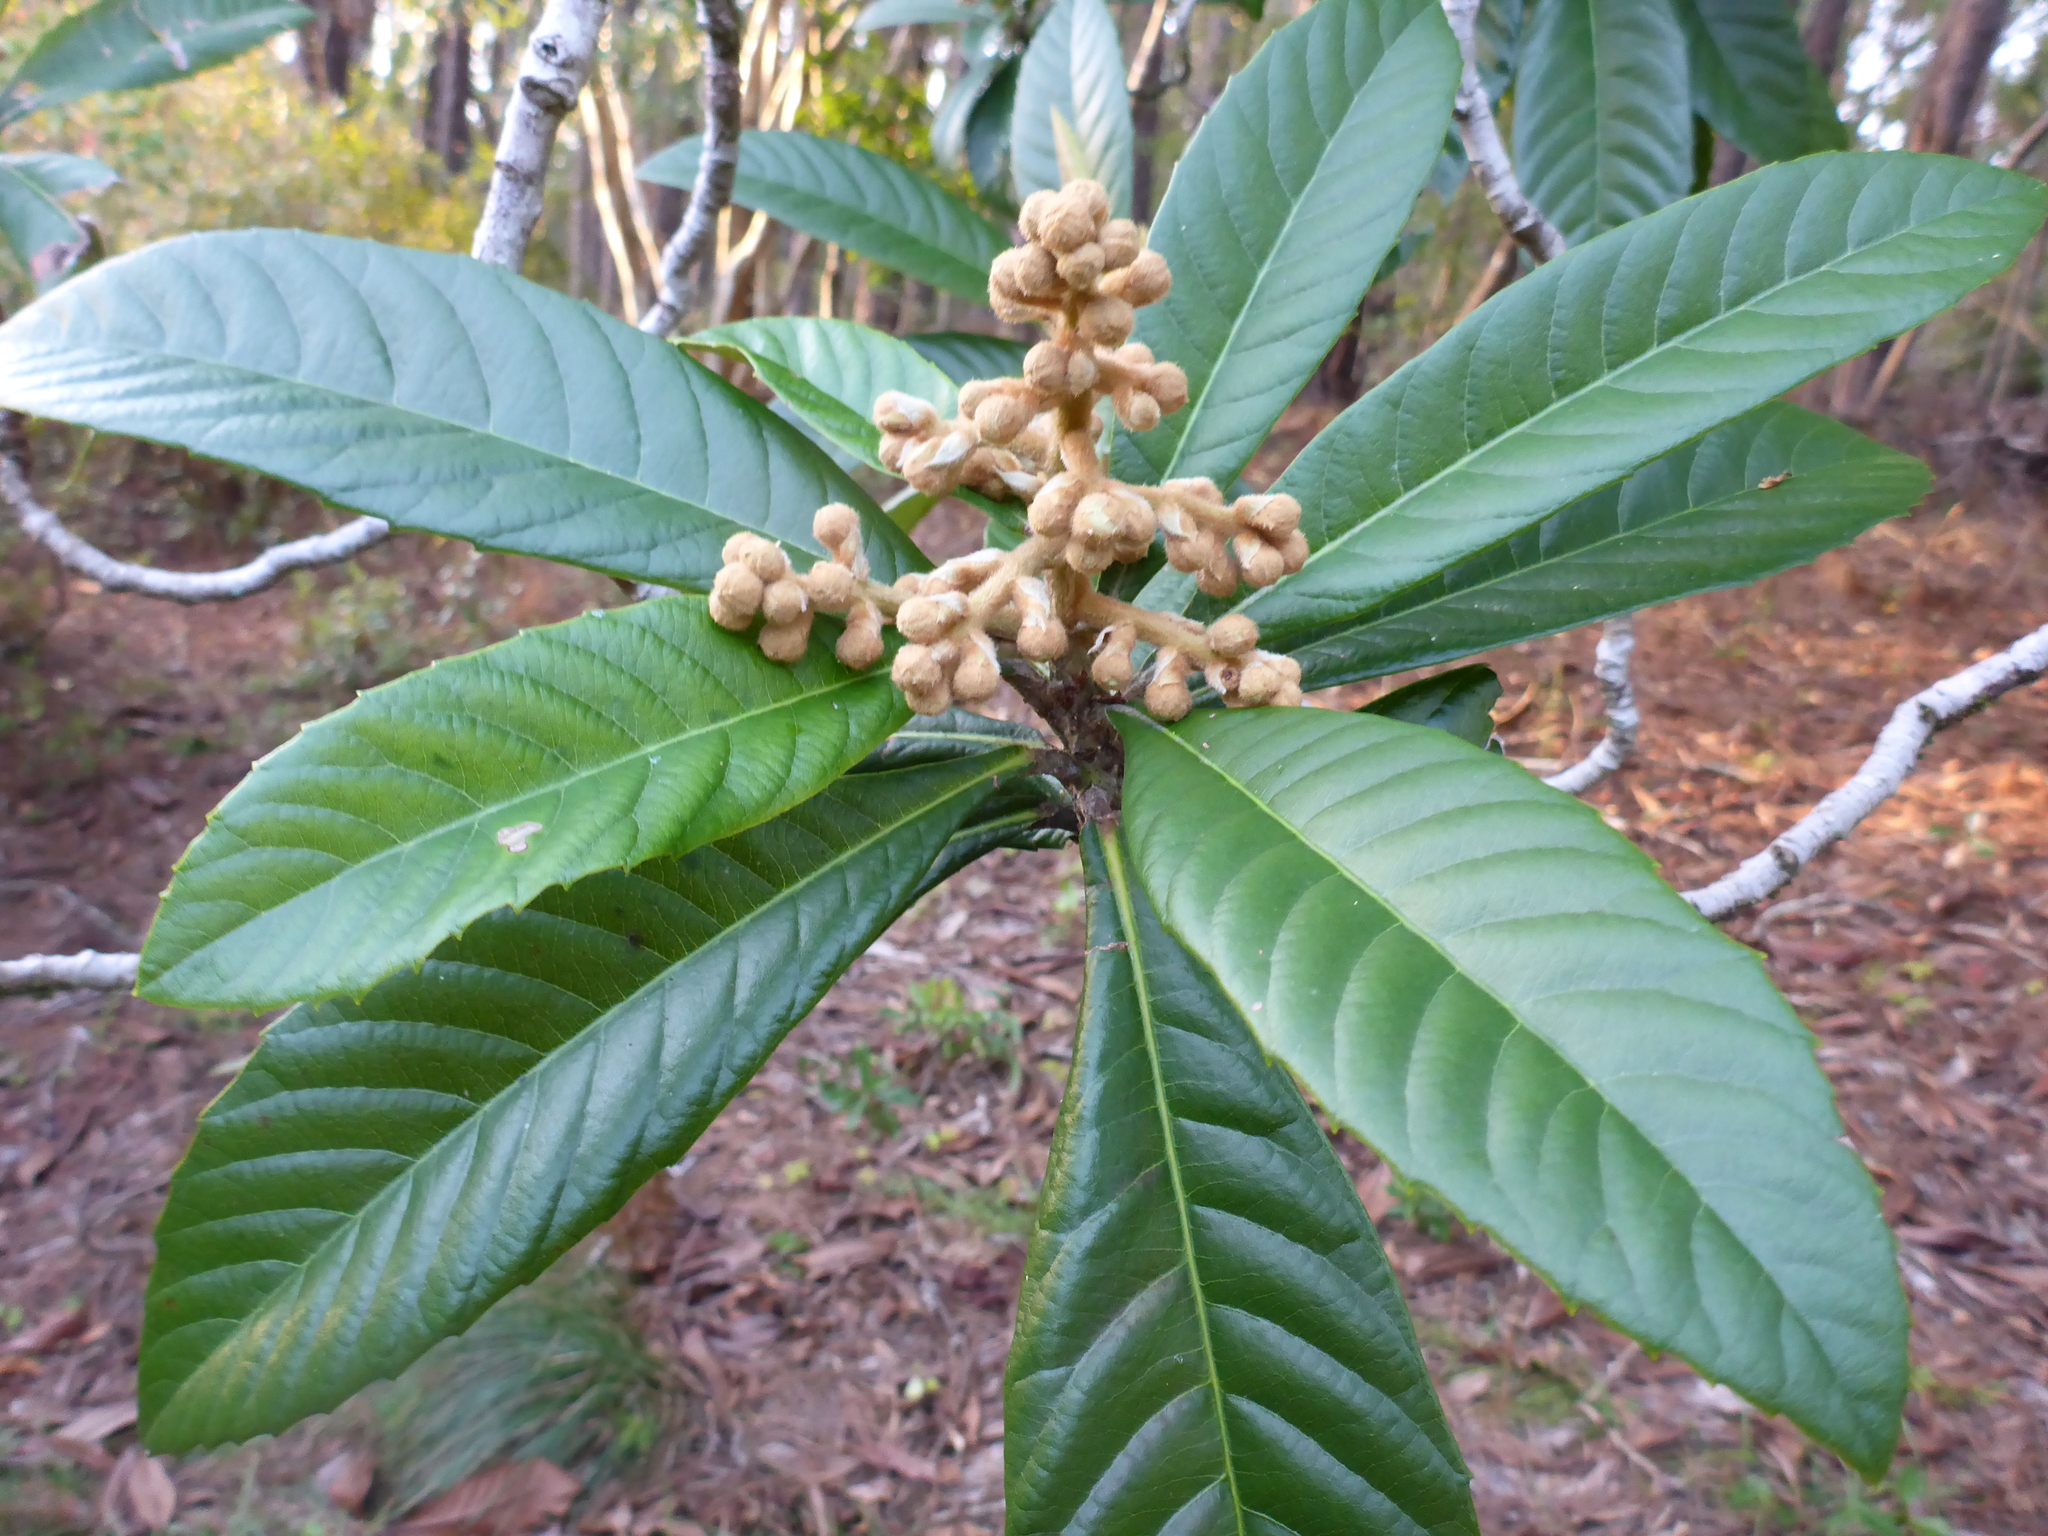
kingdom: Plantae
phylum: Tracheophyta
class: Magnoliopsida
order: Rosales
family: Rosaceae
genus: Rhaphiolepis
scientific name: Rhaphiolepis bibas
